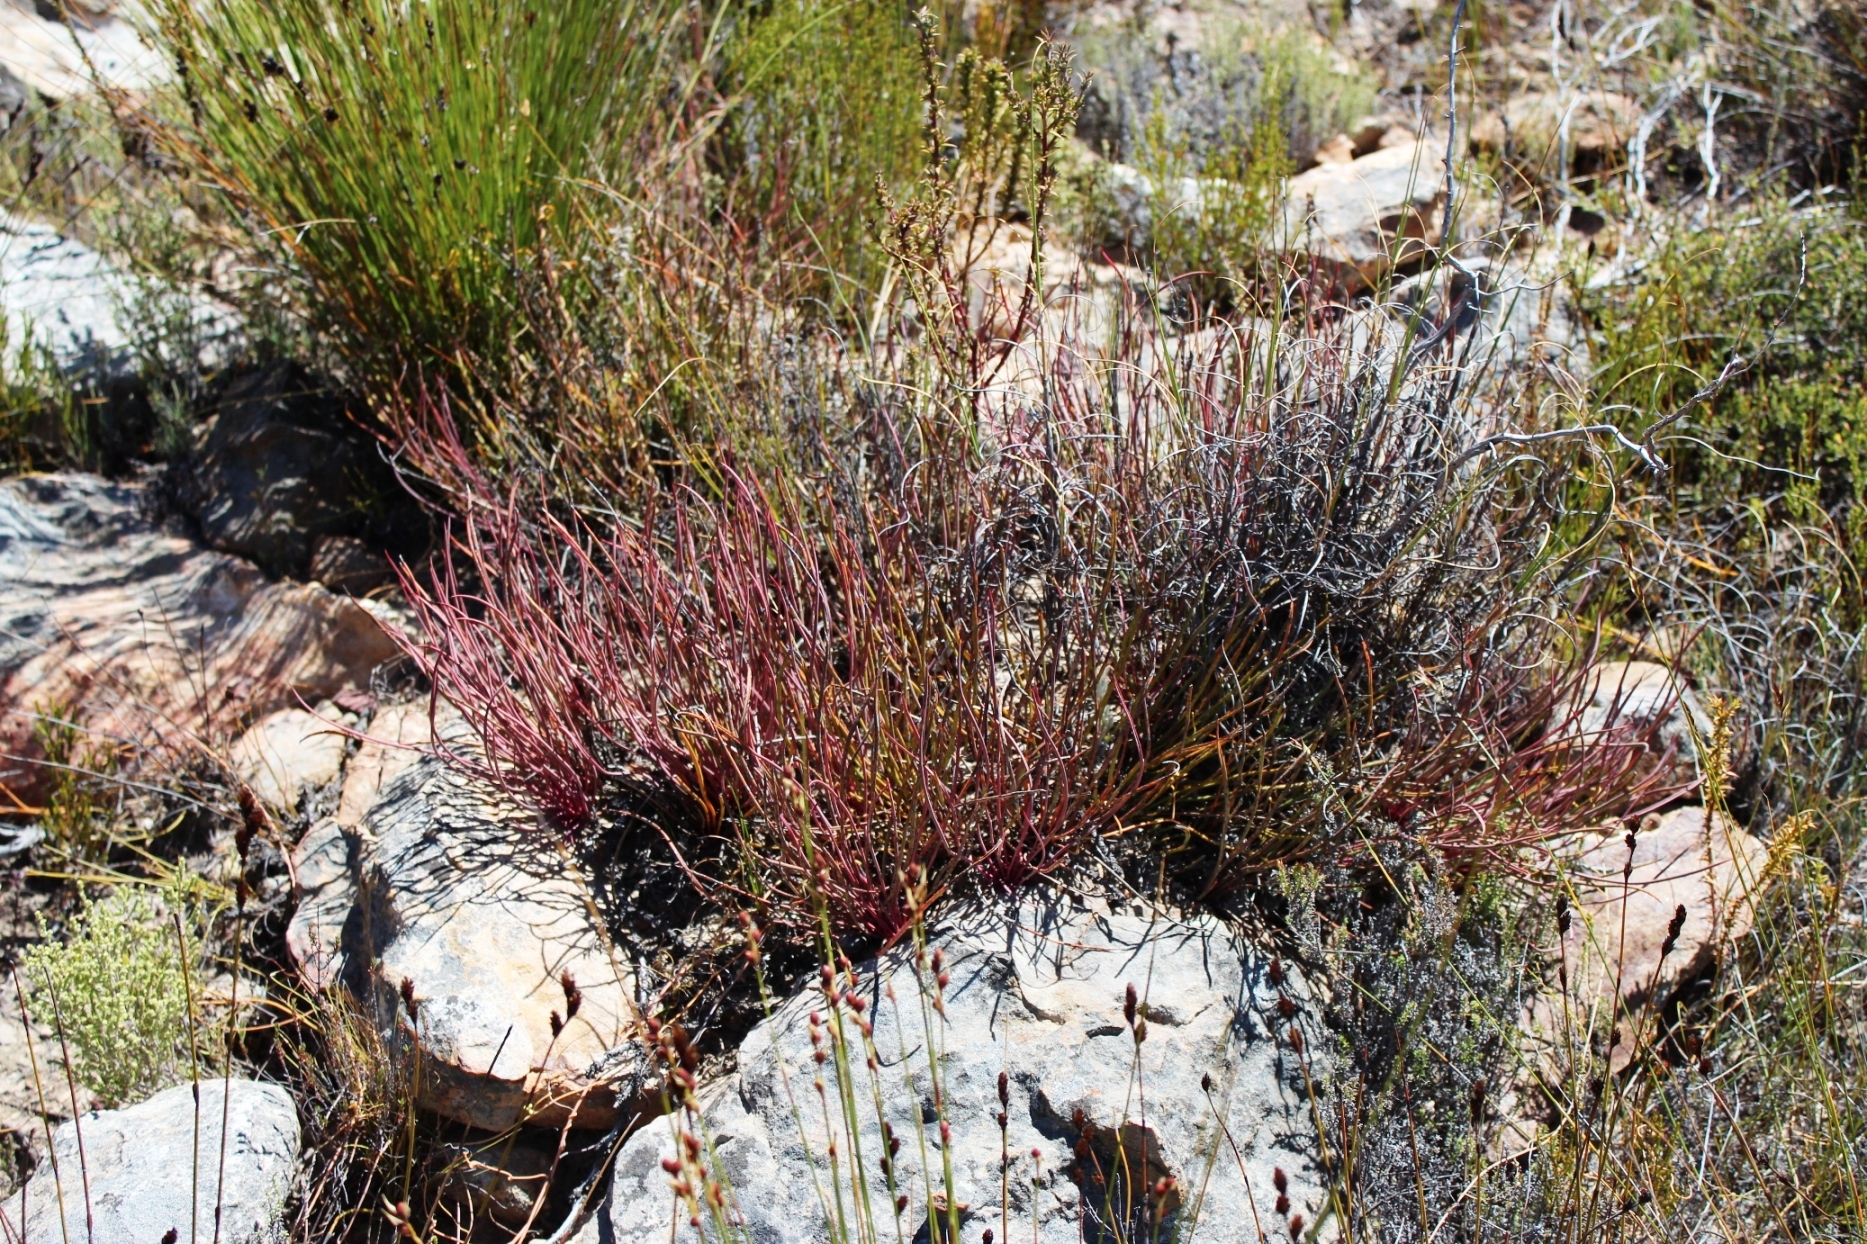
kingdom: Plantae
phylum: Tracheophyta
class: Magnoliopsida
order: Proteales
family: Proteaceae
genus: Protea
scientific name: Protea revoluta
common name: Rolled-leaf sugarbush
